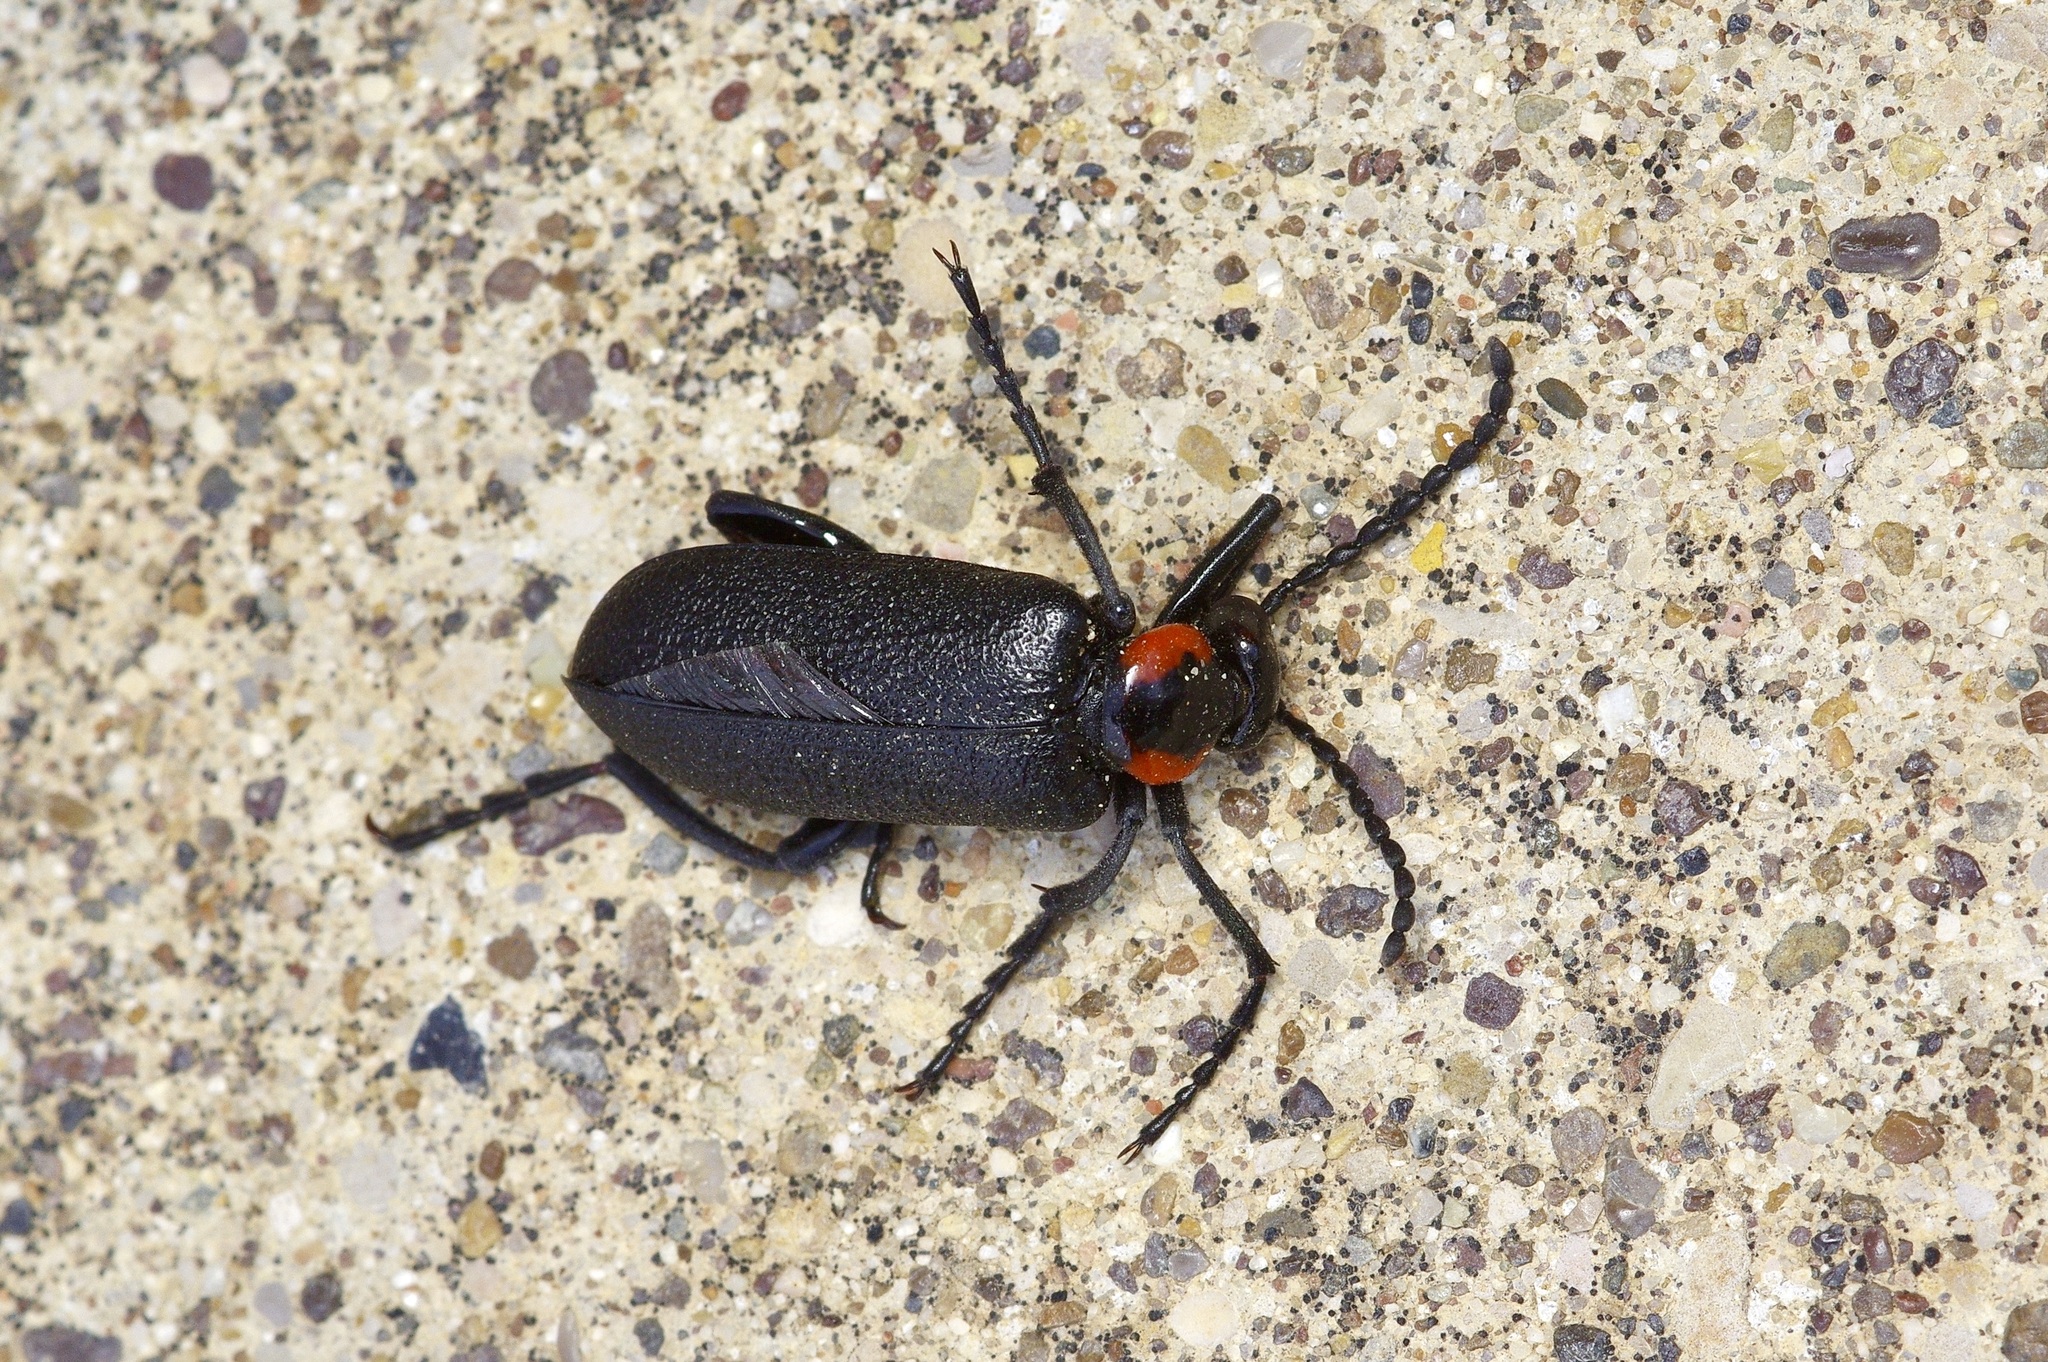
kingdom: Animalia
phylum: Arthropoda
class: Insecta
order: Coleoptera
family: Meloidae
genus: Lytta
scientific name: Lytta cribrata
